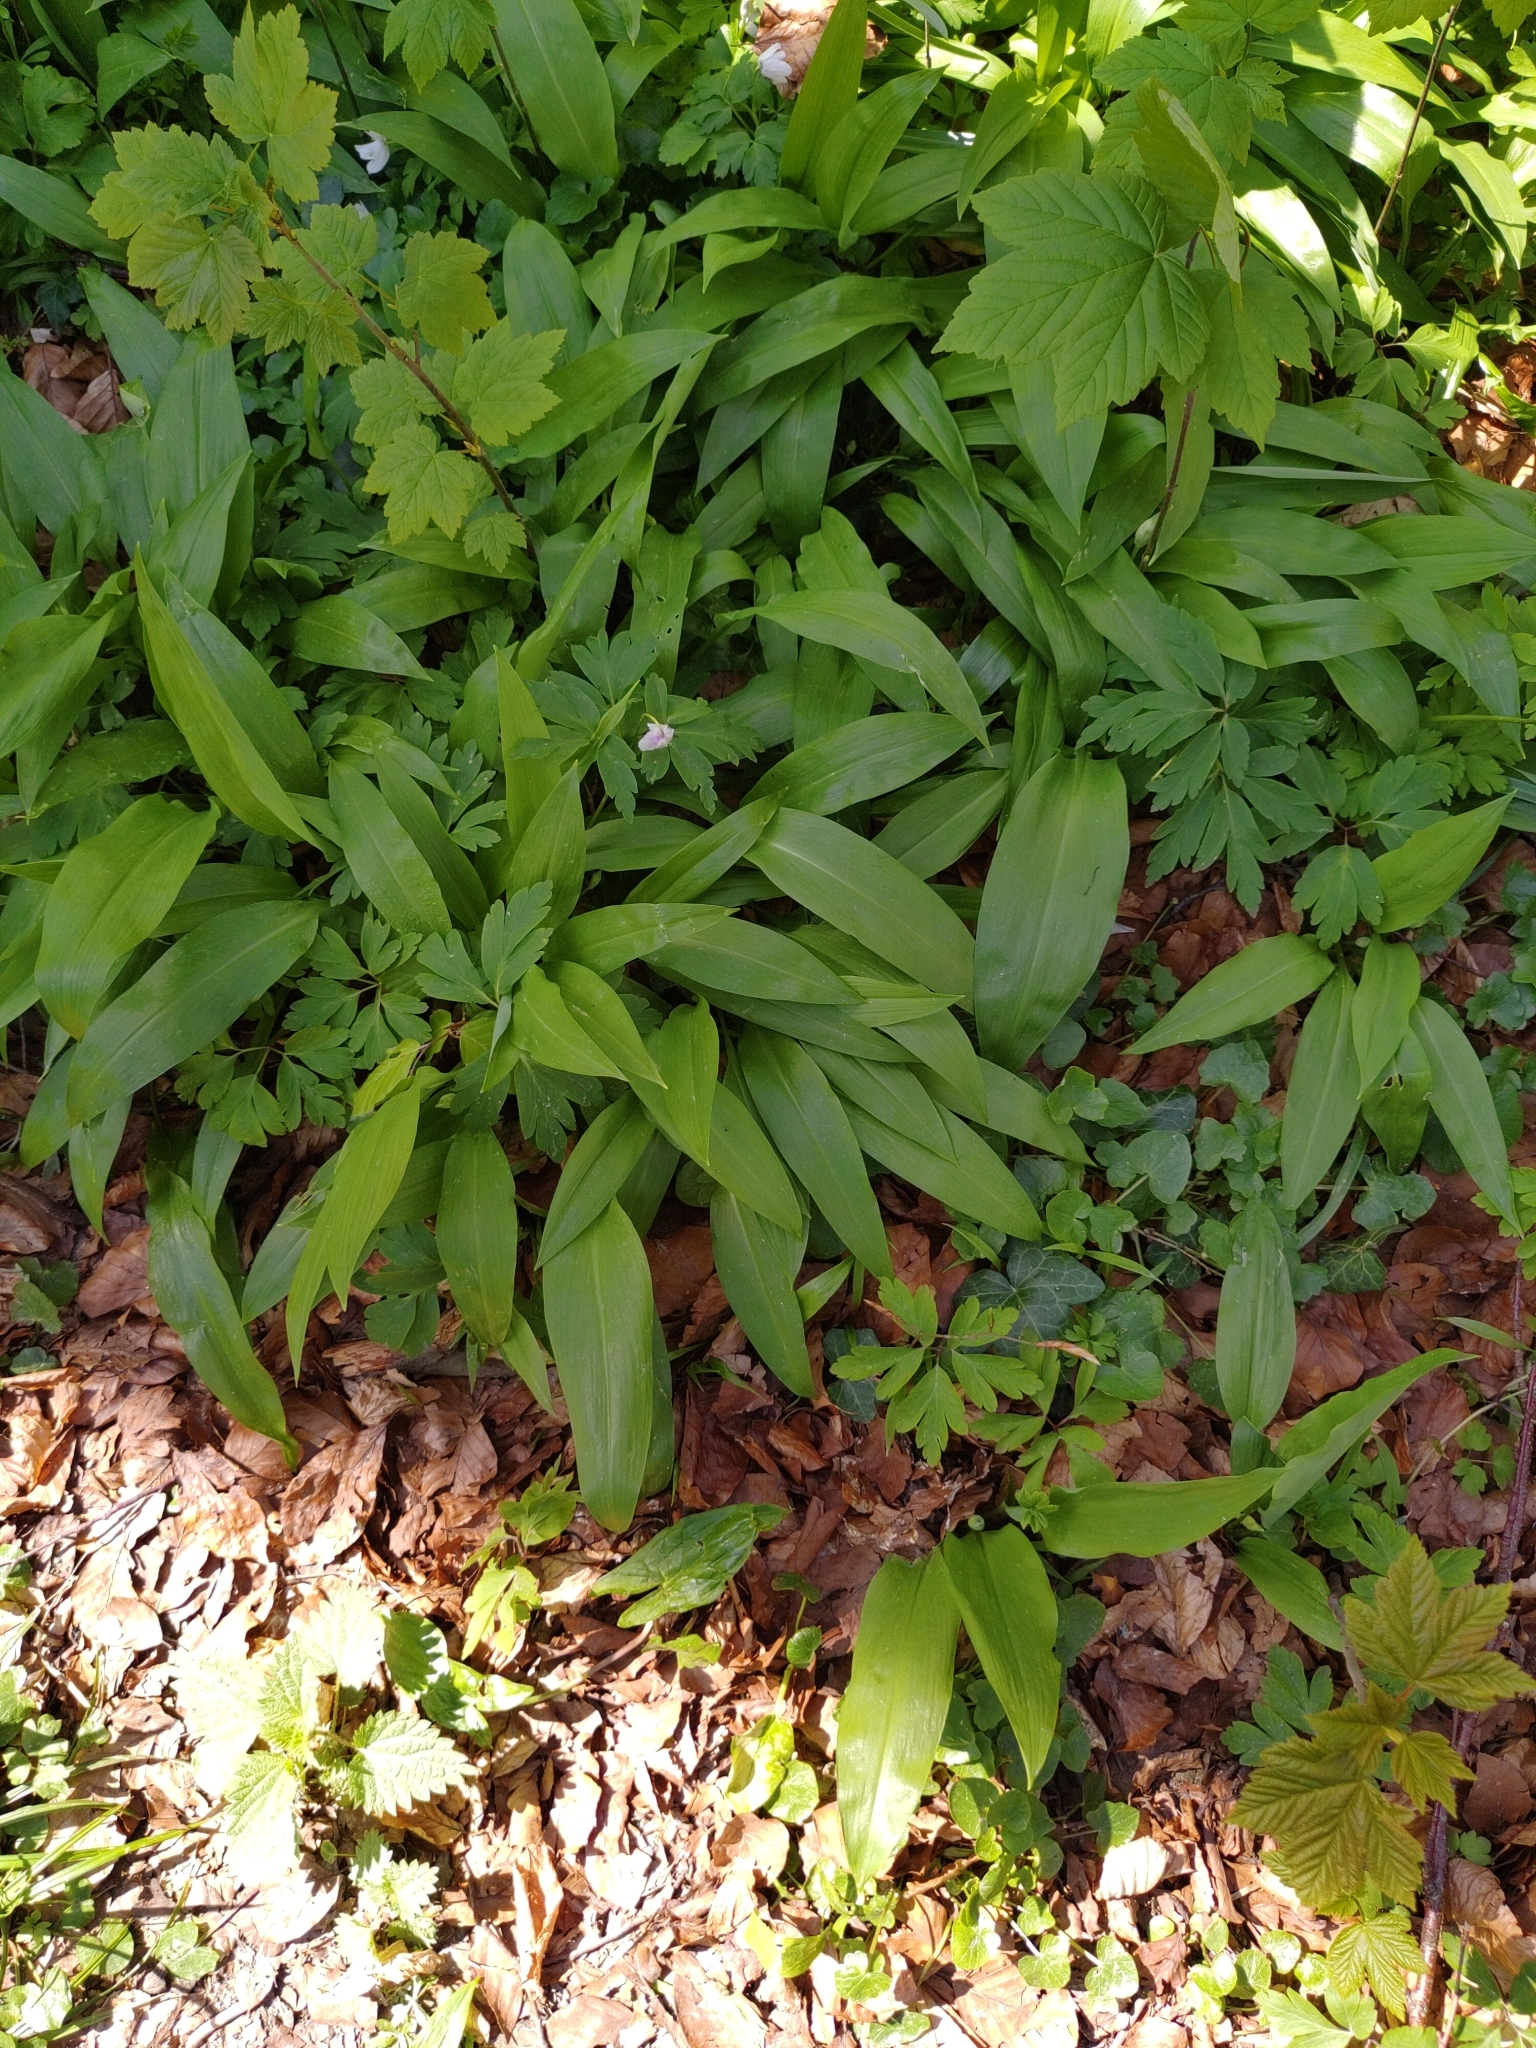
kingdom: Plantae
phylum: Tracheophyta
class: Liliopsida
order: Asparagales
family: Amaryllidaceae
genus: Allium
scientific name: Allium ursinum
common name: Ramsons
